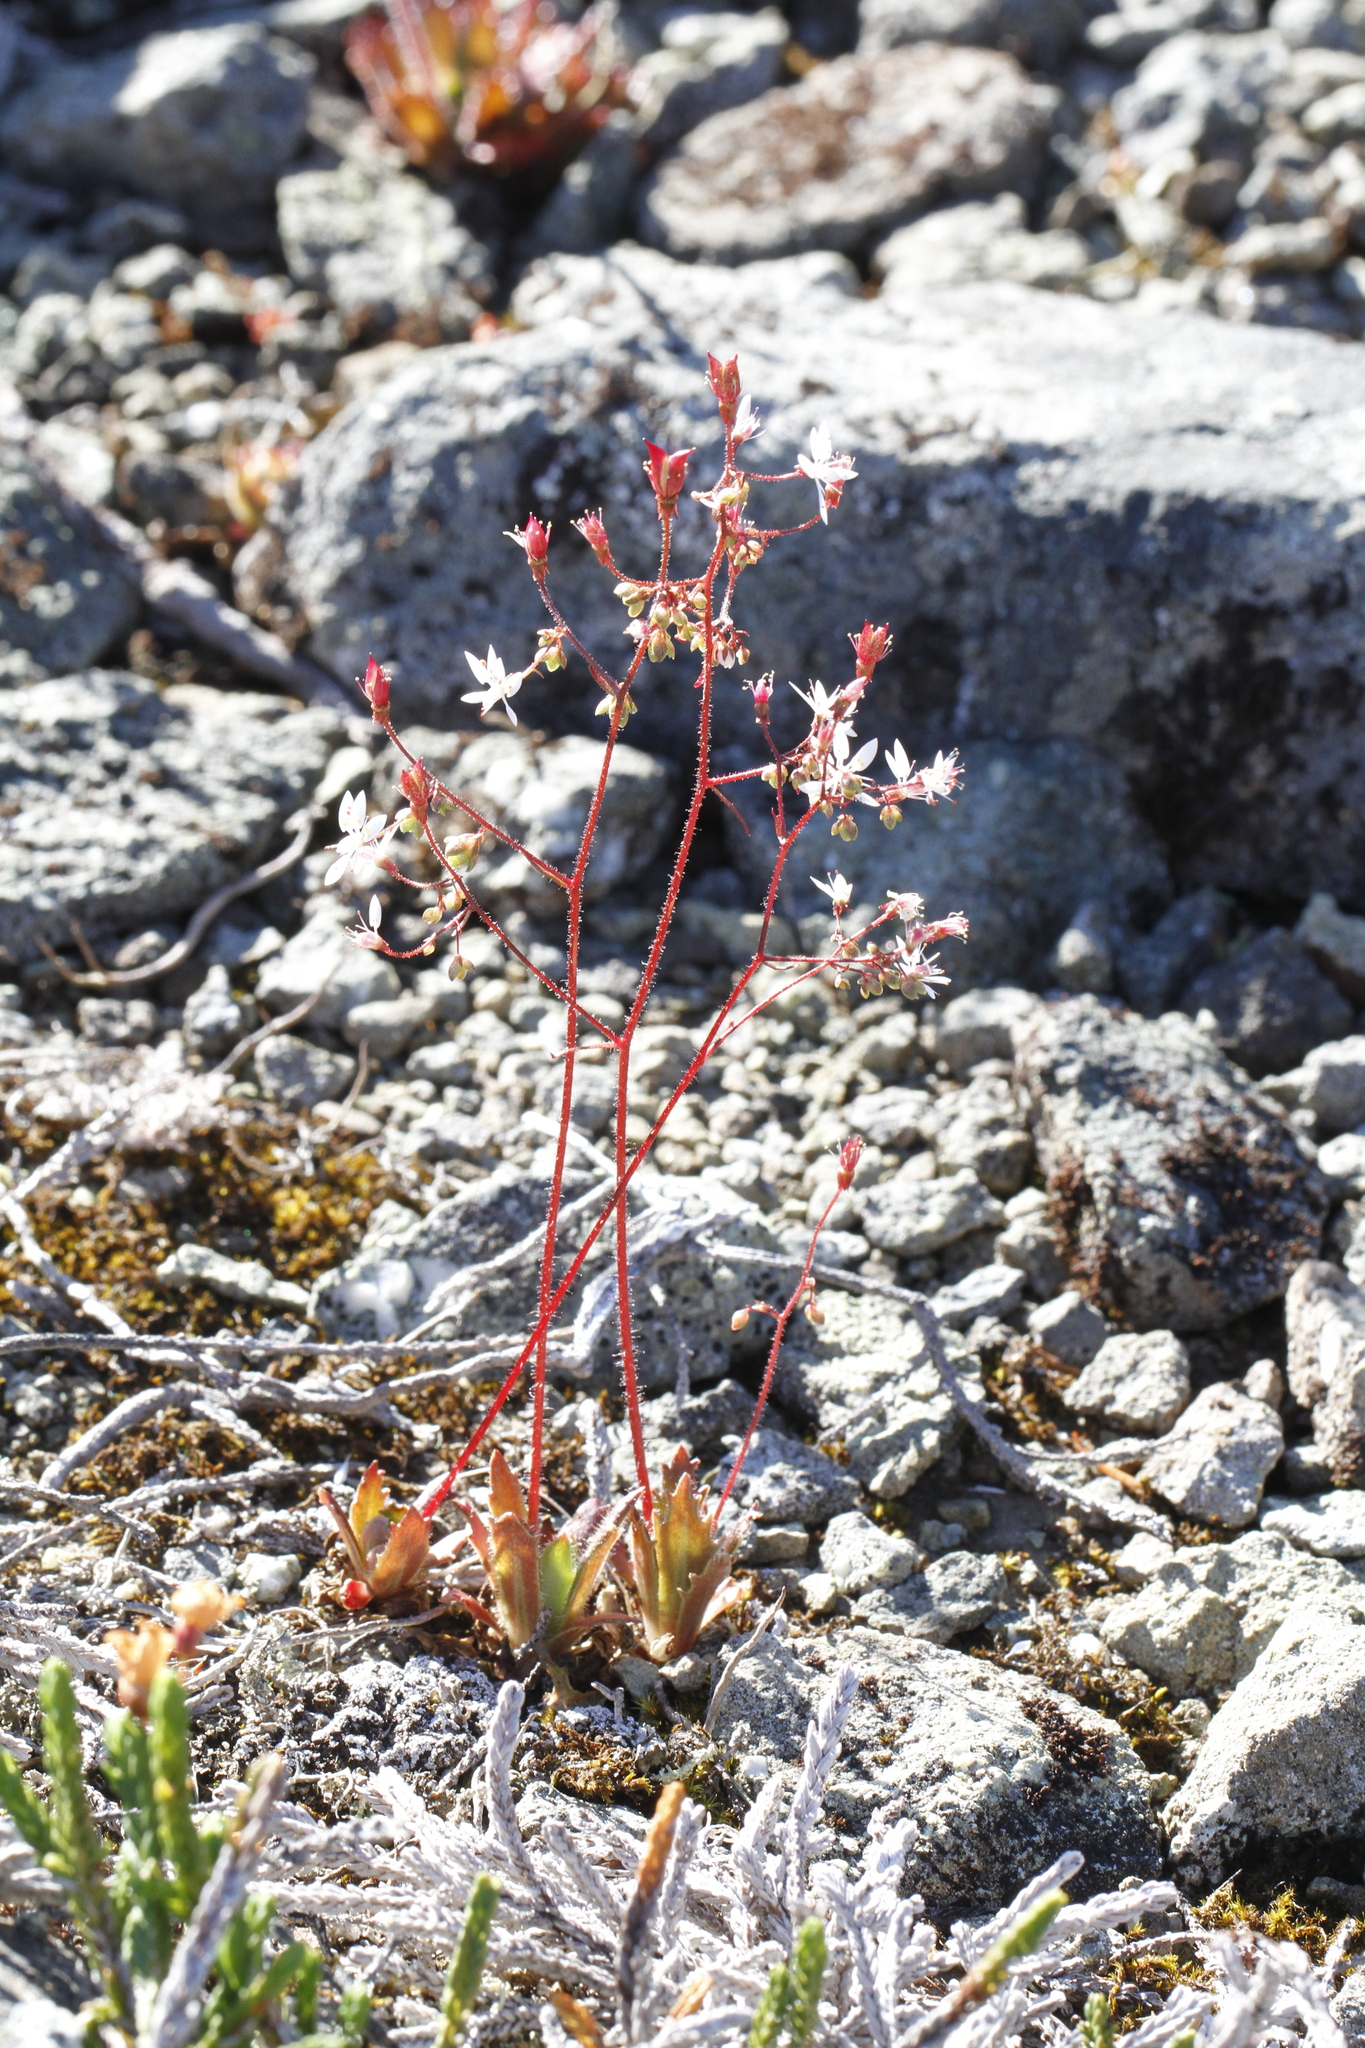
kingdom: Plantae
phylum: Tracheophyta
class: Magnoliopsida
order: Saxifragales
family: Saxifragaceae
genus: Micranthes
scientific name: Micranthes ferruginea
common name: Rusty saxifrage
